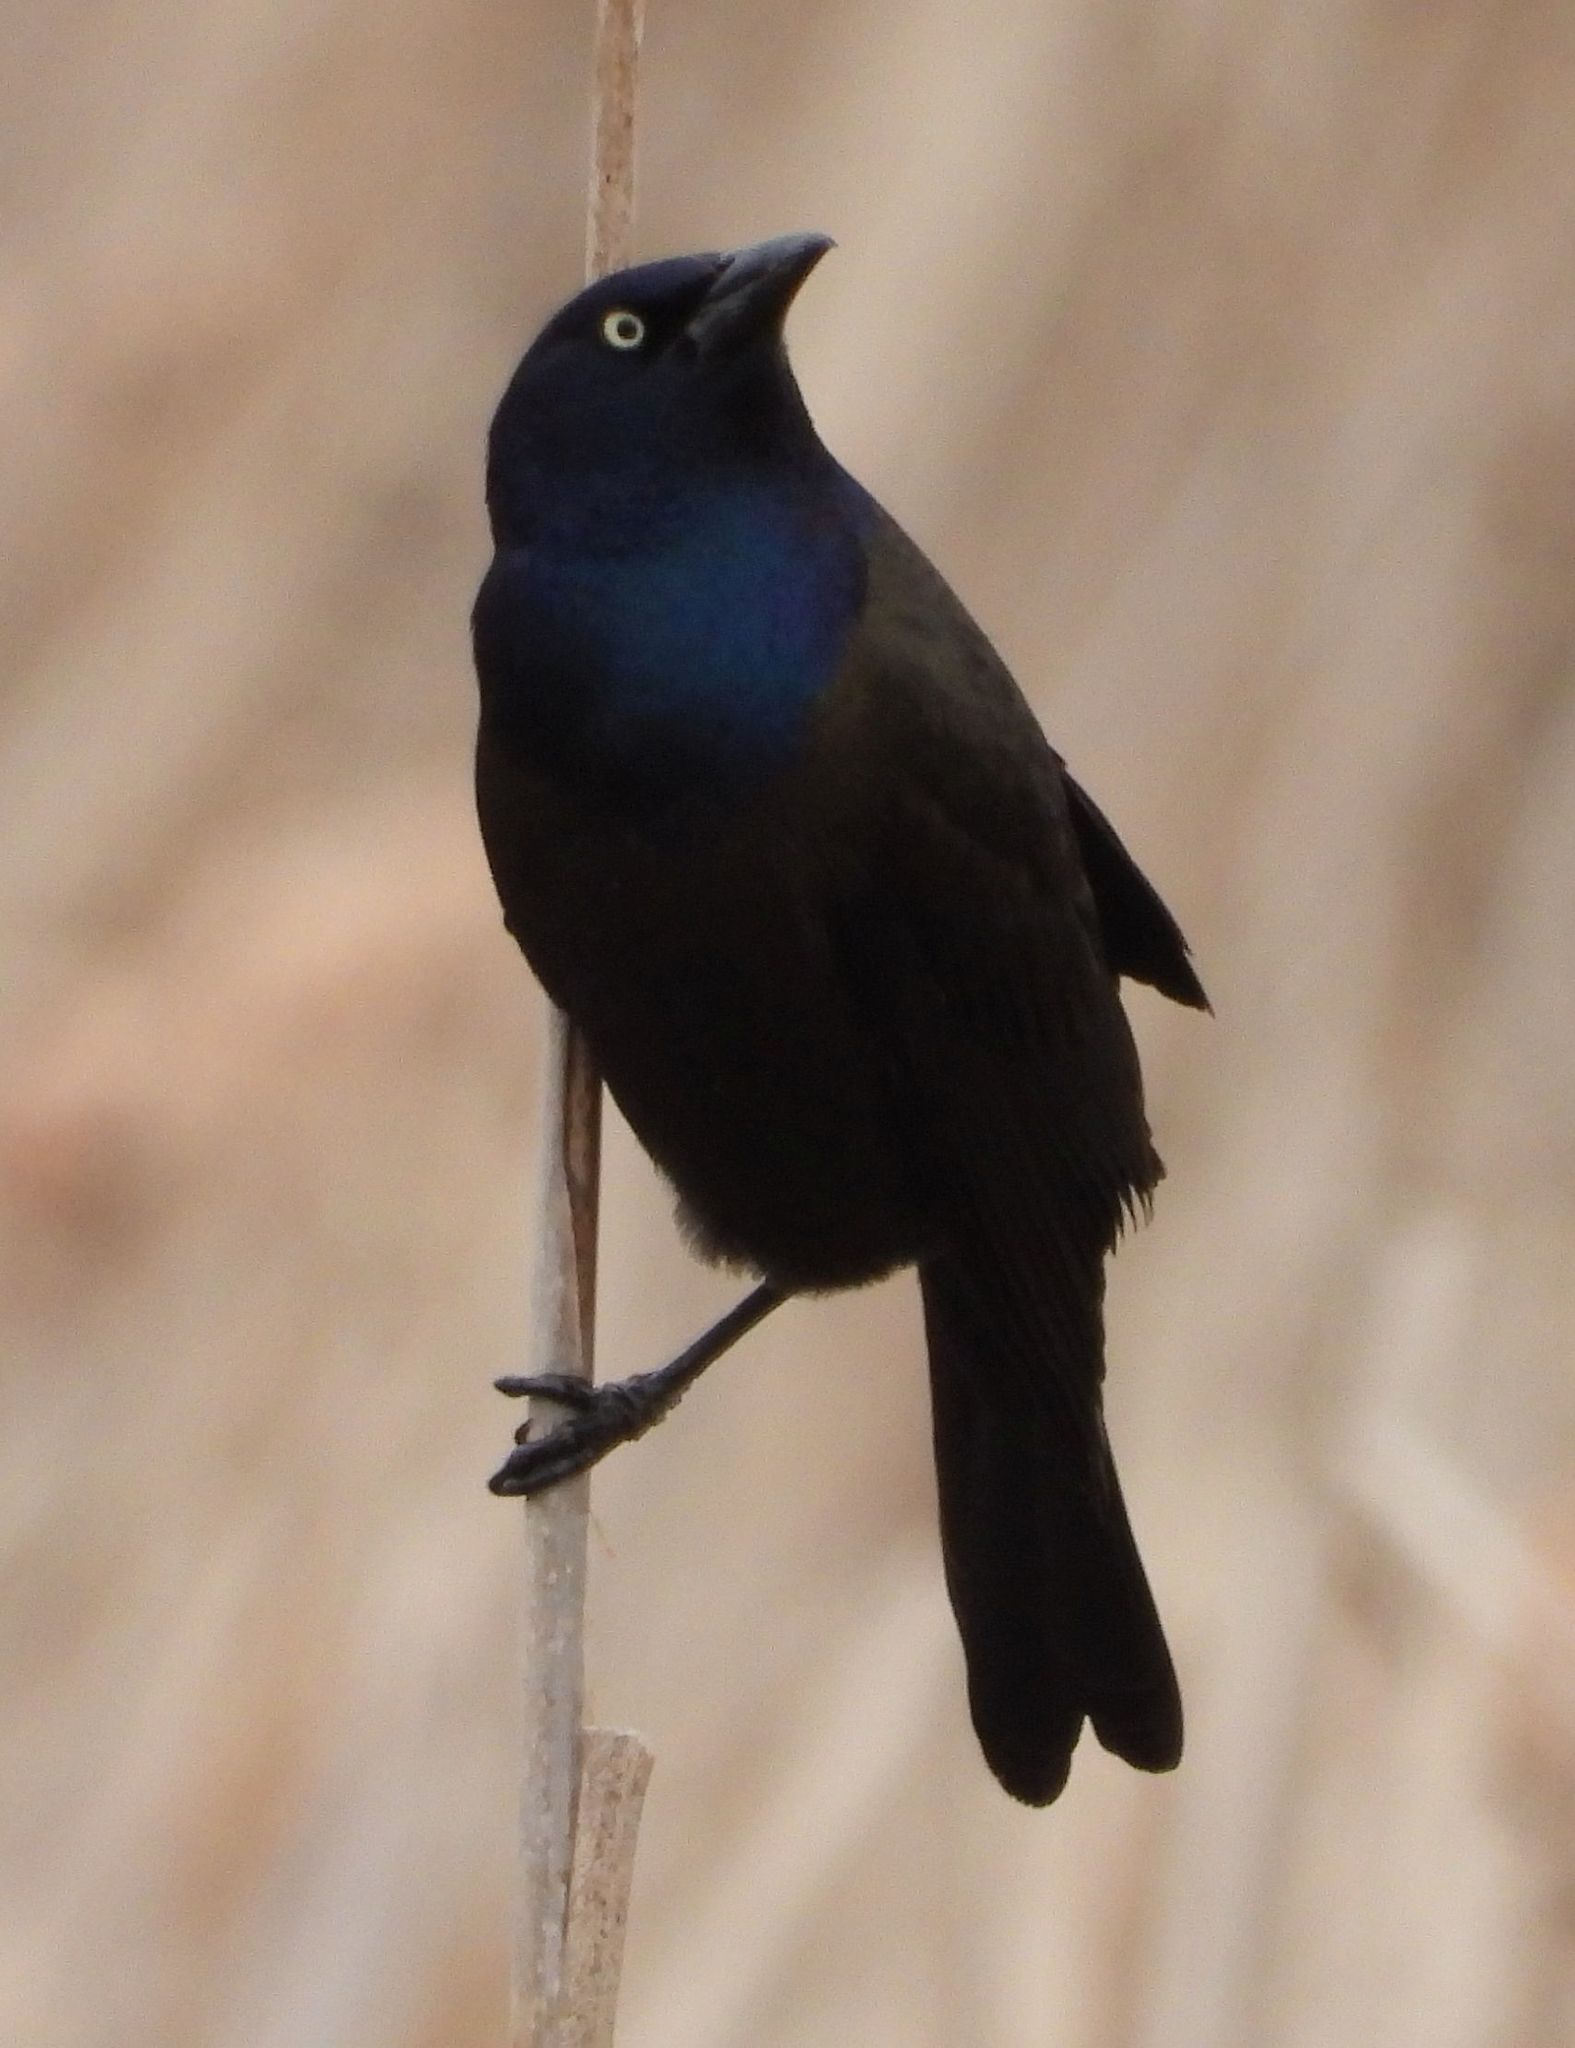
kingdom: Animalia
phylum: Chordata
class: Aves
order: Passeriformes
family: Icteridae
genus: Quiscalus
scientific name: Quiscalus quiscula
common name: Common grackle
